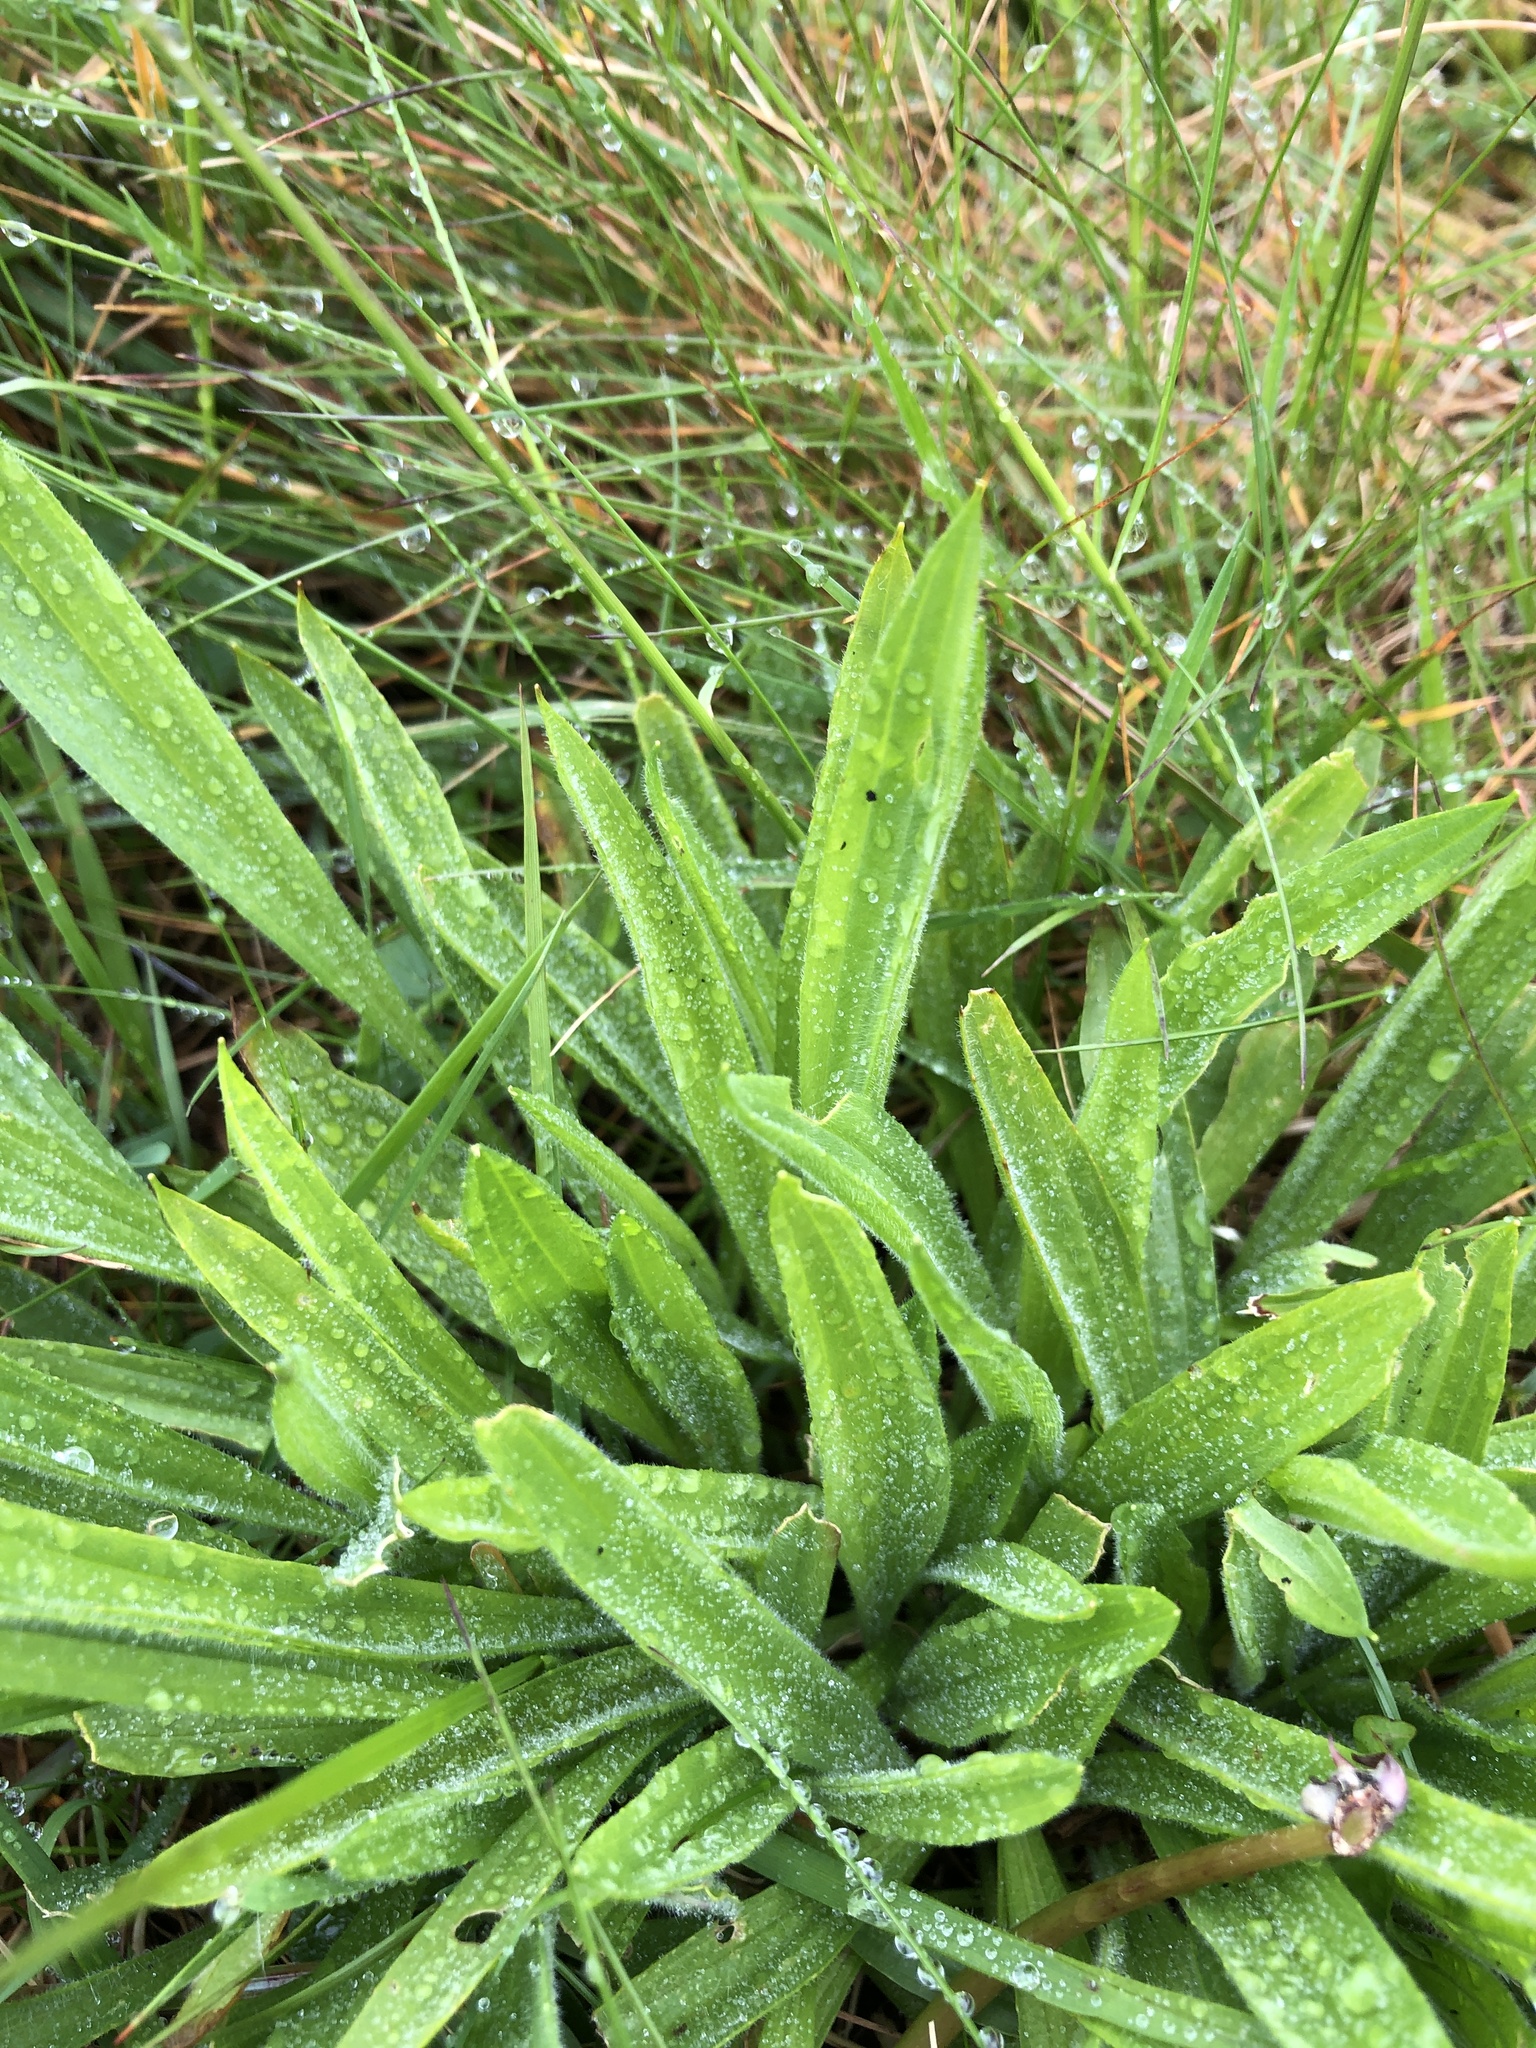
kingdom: Plantae
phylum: Tracheophyta
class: Magnoliopsida
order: Lamiales
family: Plantaginaceae
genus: Plantago
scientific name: Plantago lanceolata
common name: Ribwort plantain
